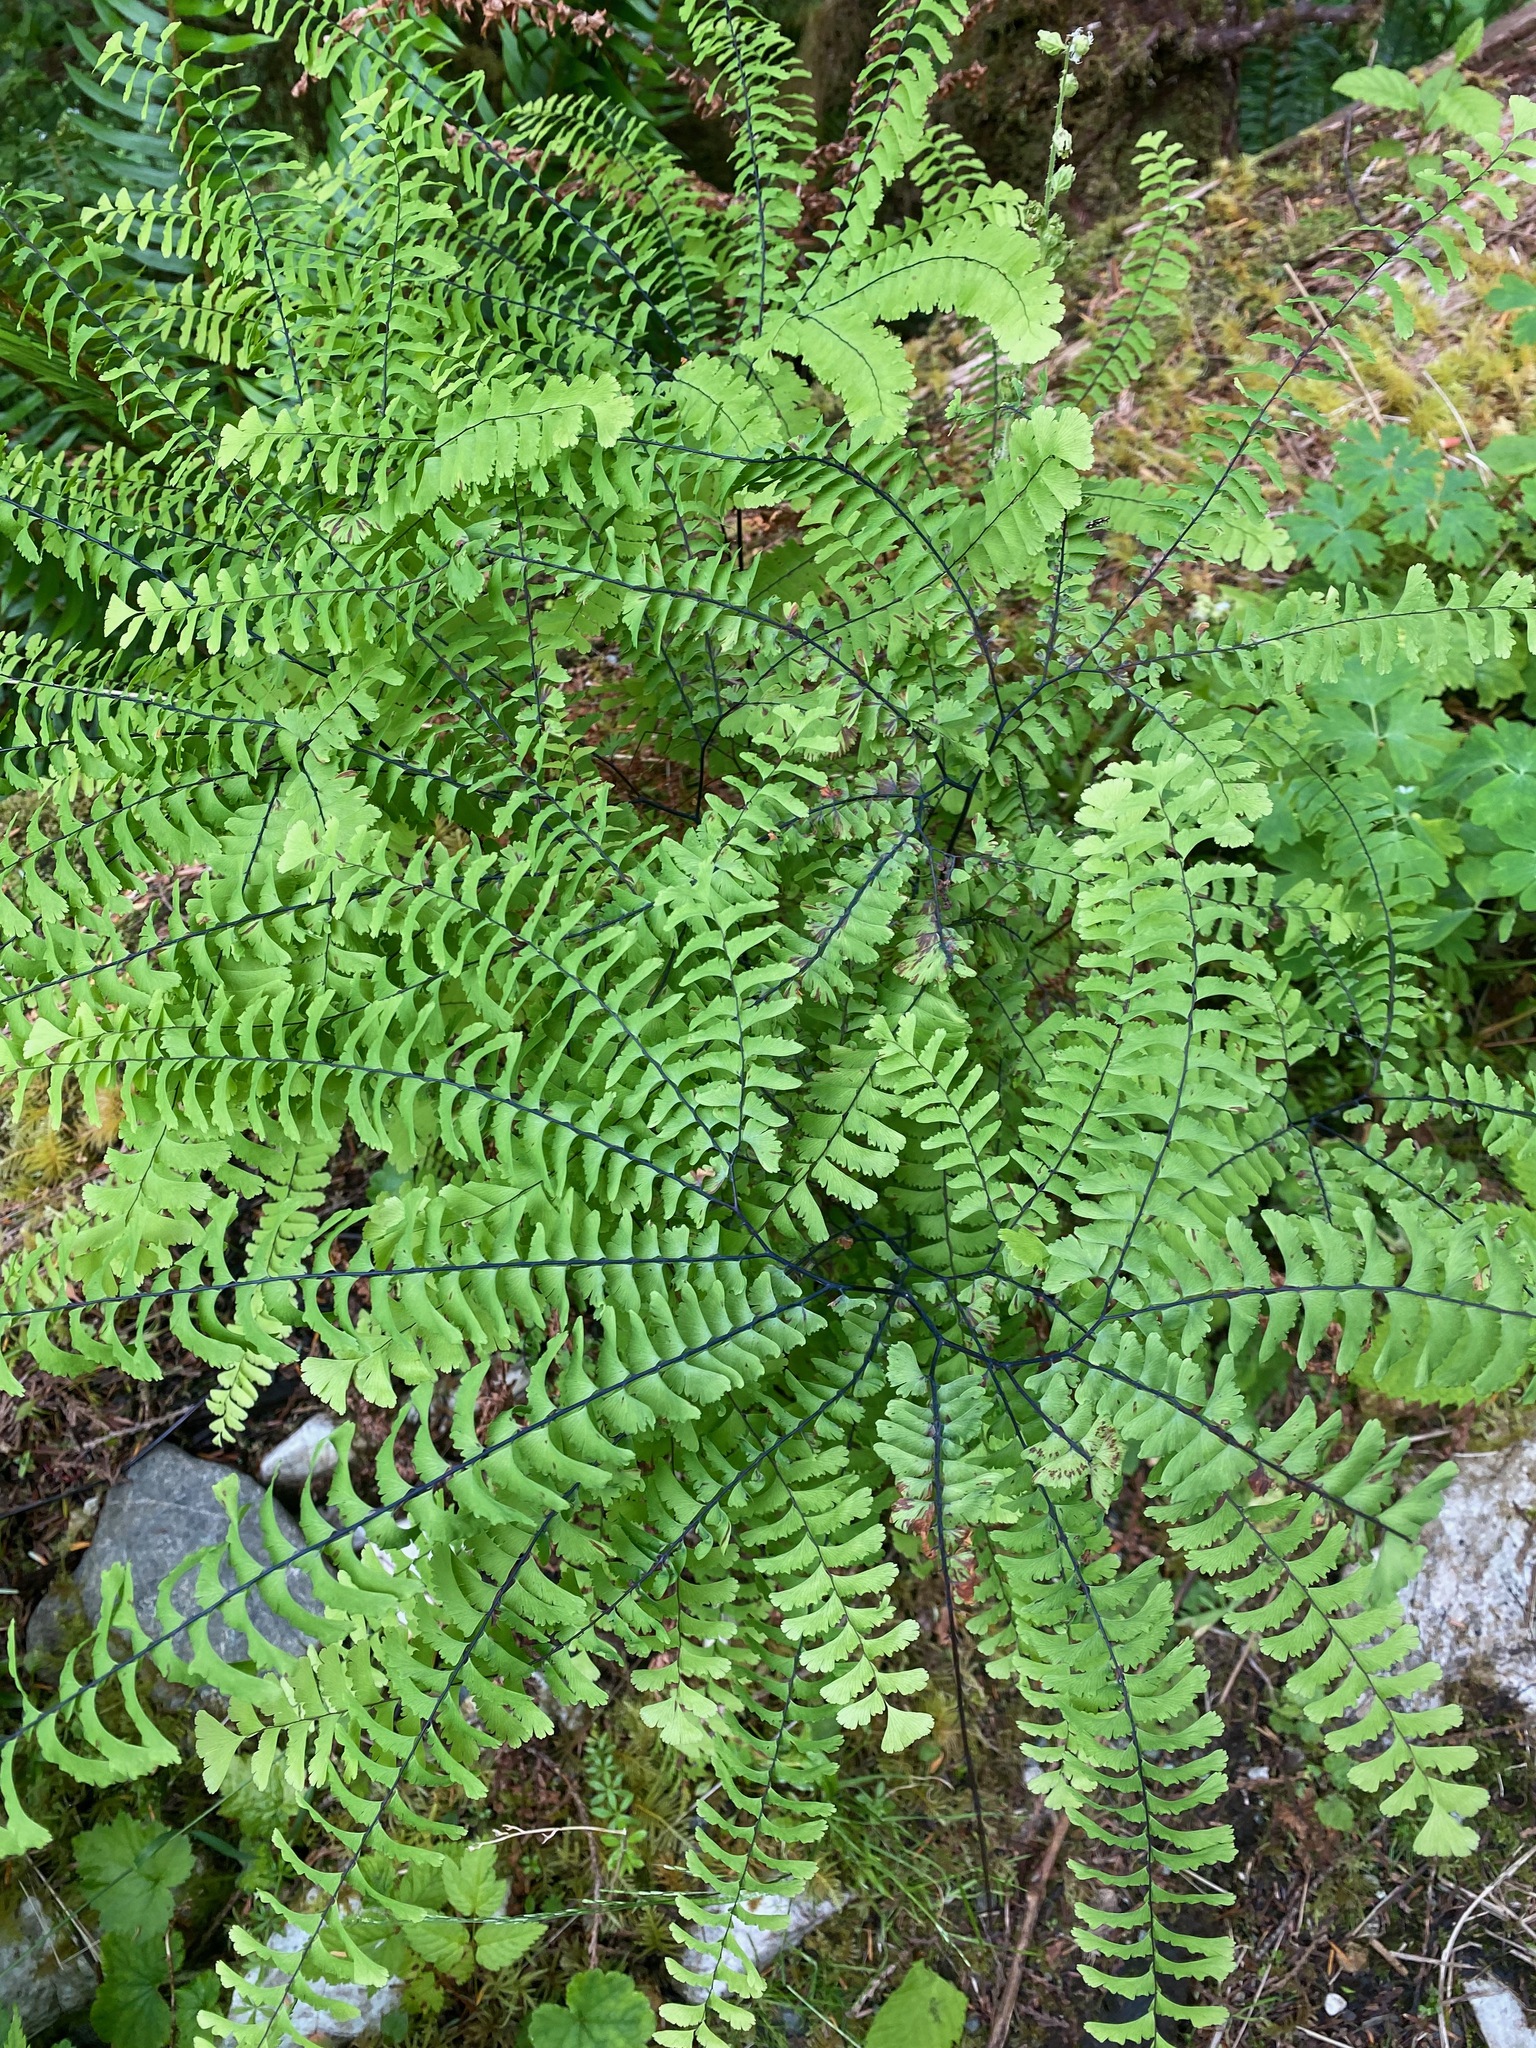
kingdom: Plantae
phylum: Tracheophyta
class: Polypodiopsida
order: Polypodiales
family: Pteridaceae
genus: Adiantum
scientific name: Adiantum aleuticum
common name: Aleutian maidenhair fern
